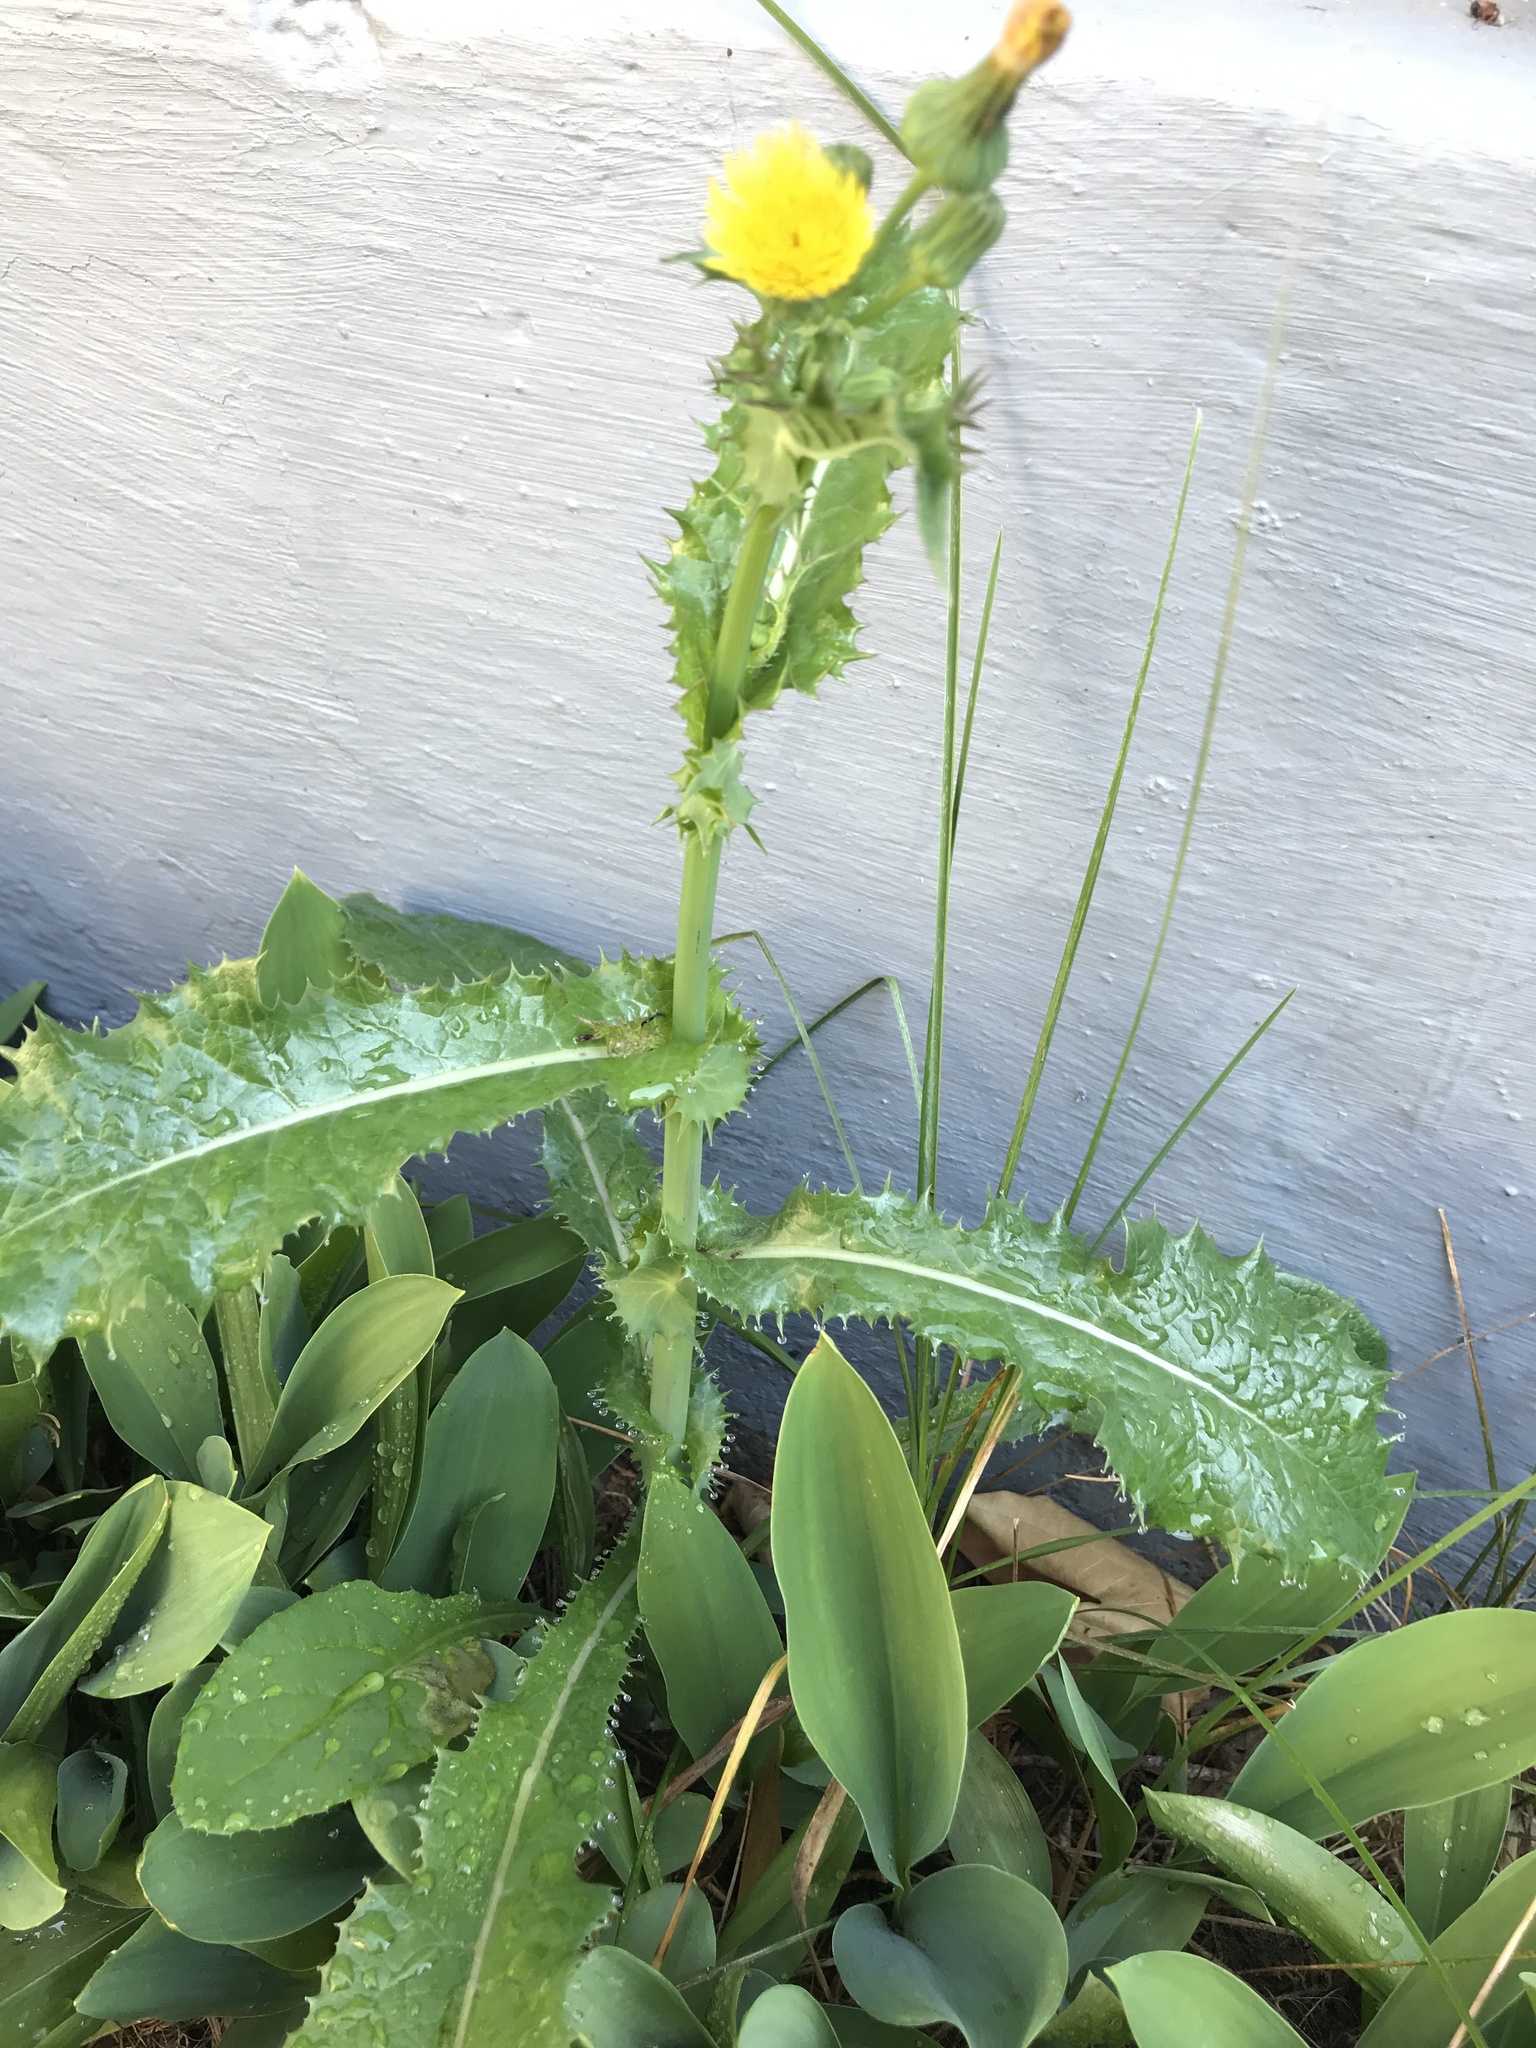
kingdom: Plantae
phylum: Tracheophyta
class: Magnoliopsida
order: Asterales
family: Asteraceae
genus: Sonchus
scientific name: Sonchus asper
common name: Prickly sow-thistle
